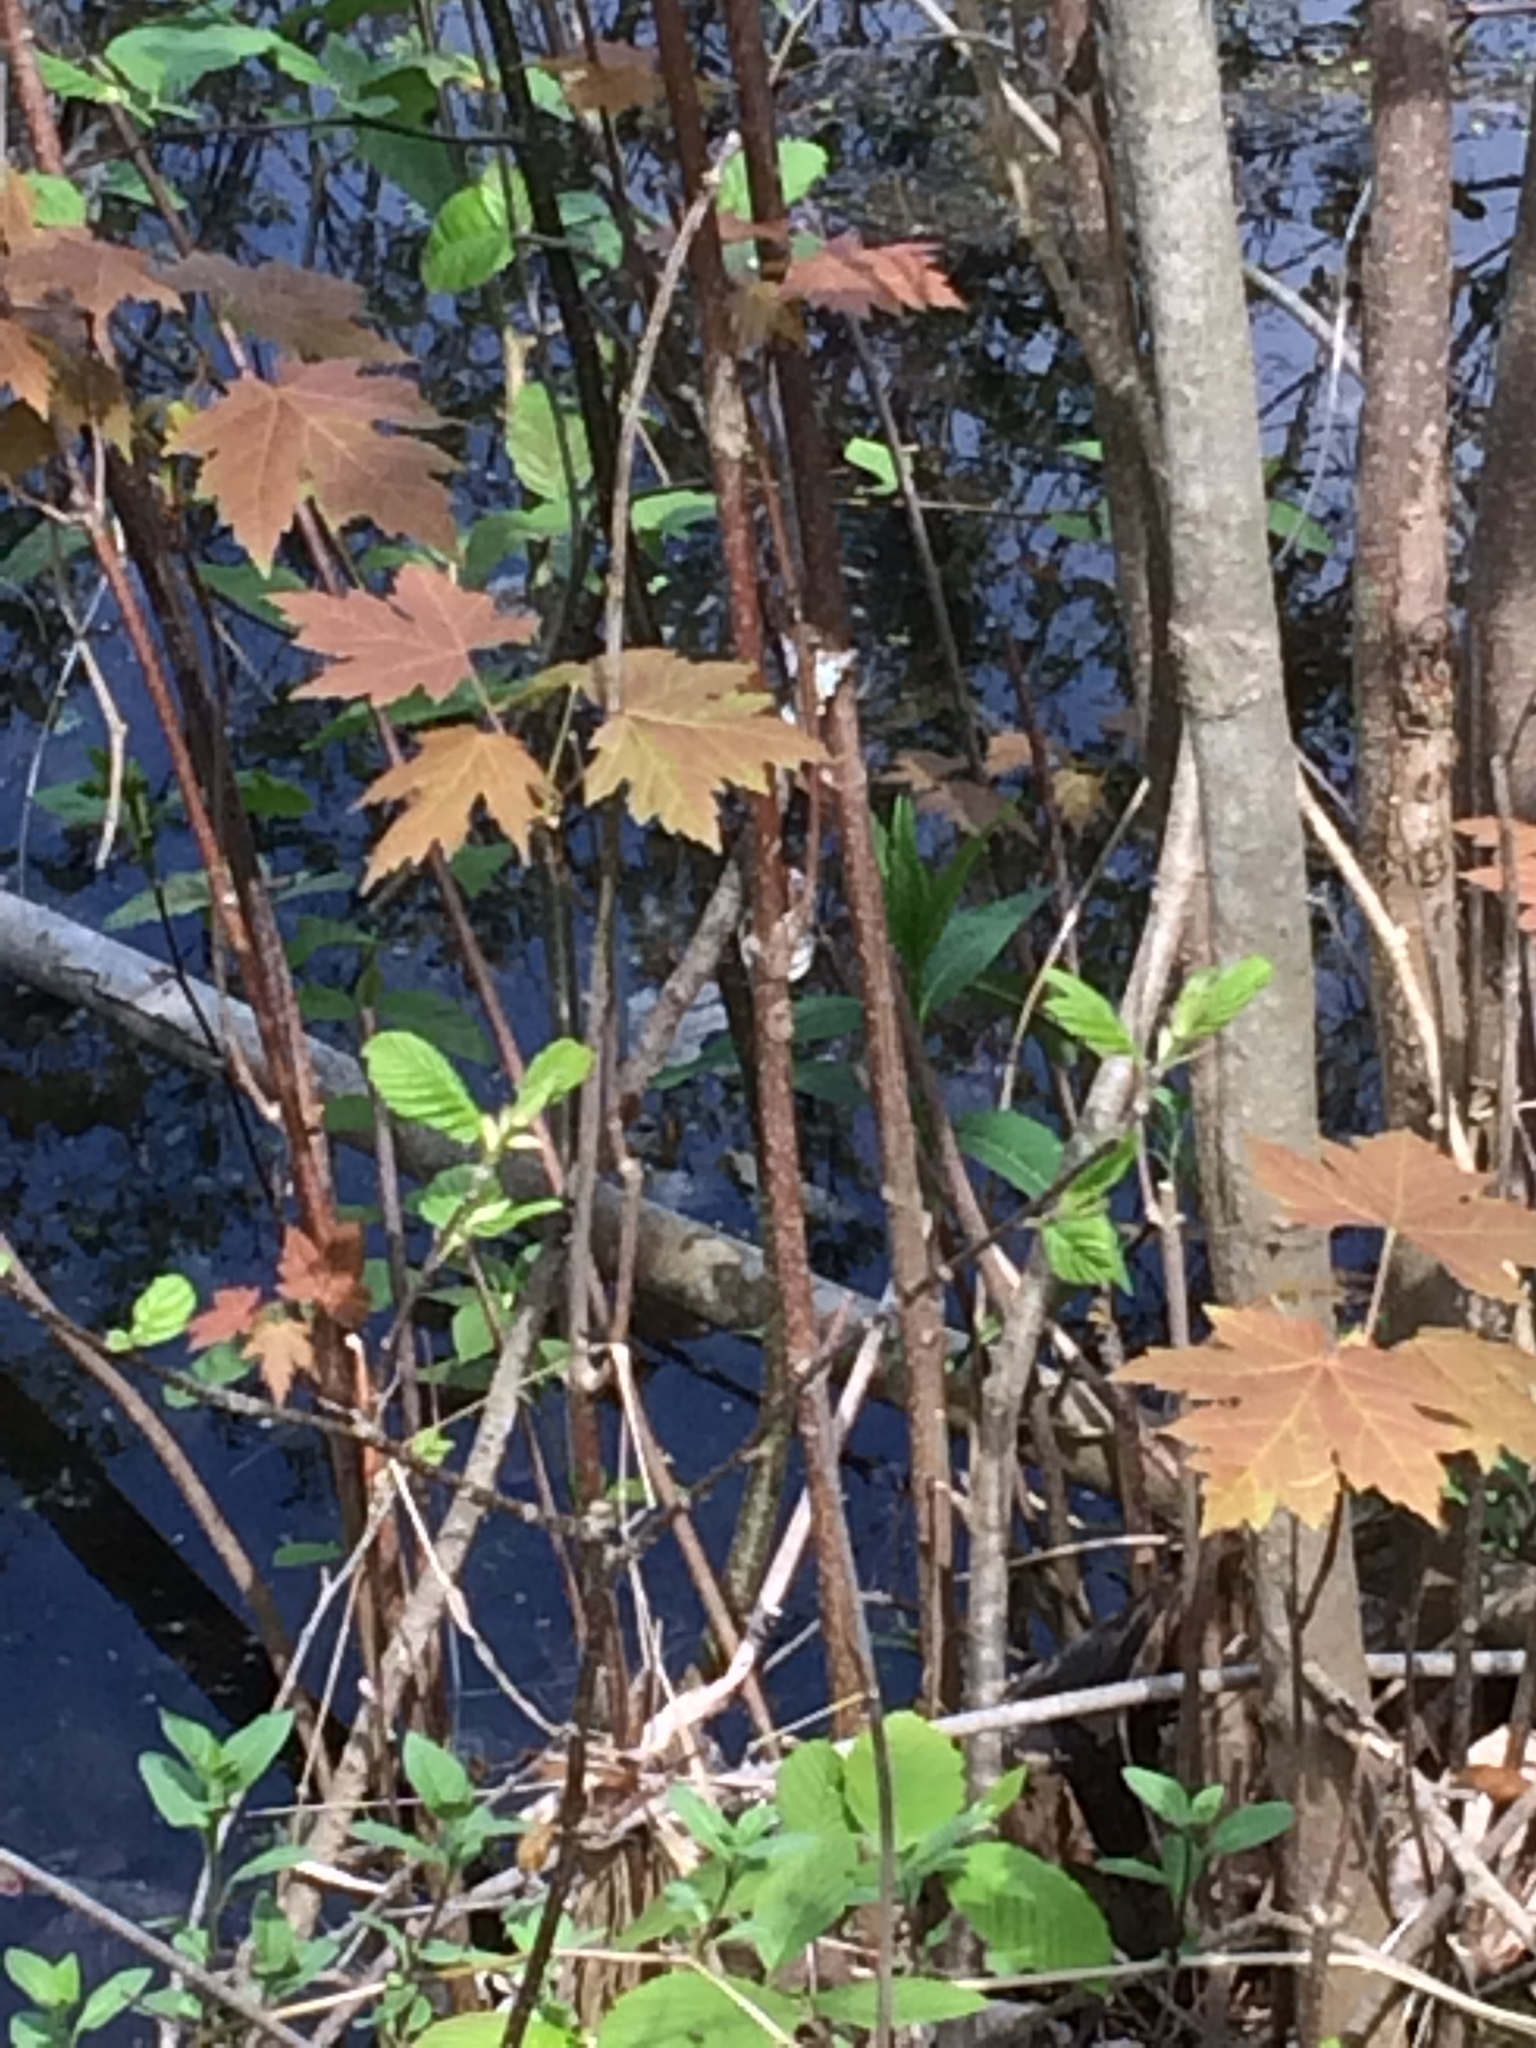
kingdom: Plantae
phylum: Tracheophyta
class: Magnoliopsida
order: Sapindales
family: Sapindaceae
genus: Acer
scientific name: Acer saccharinum
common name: Silver maple
